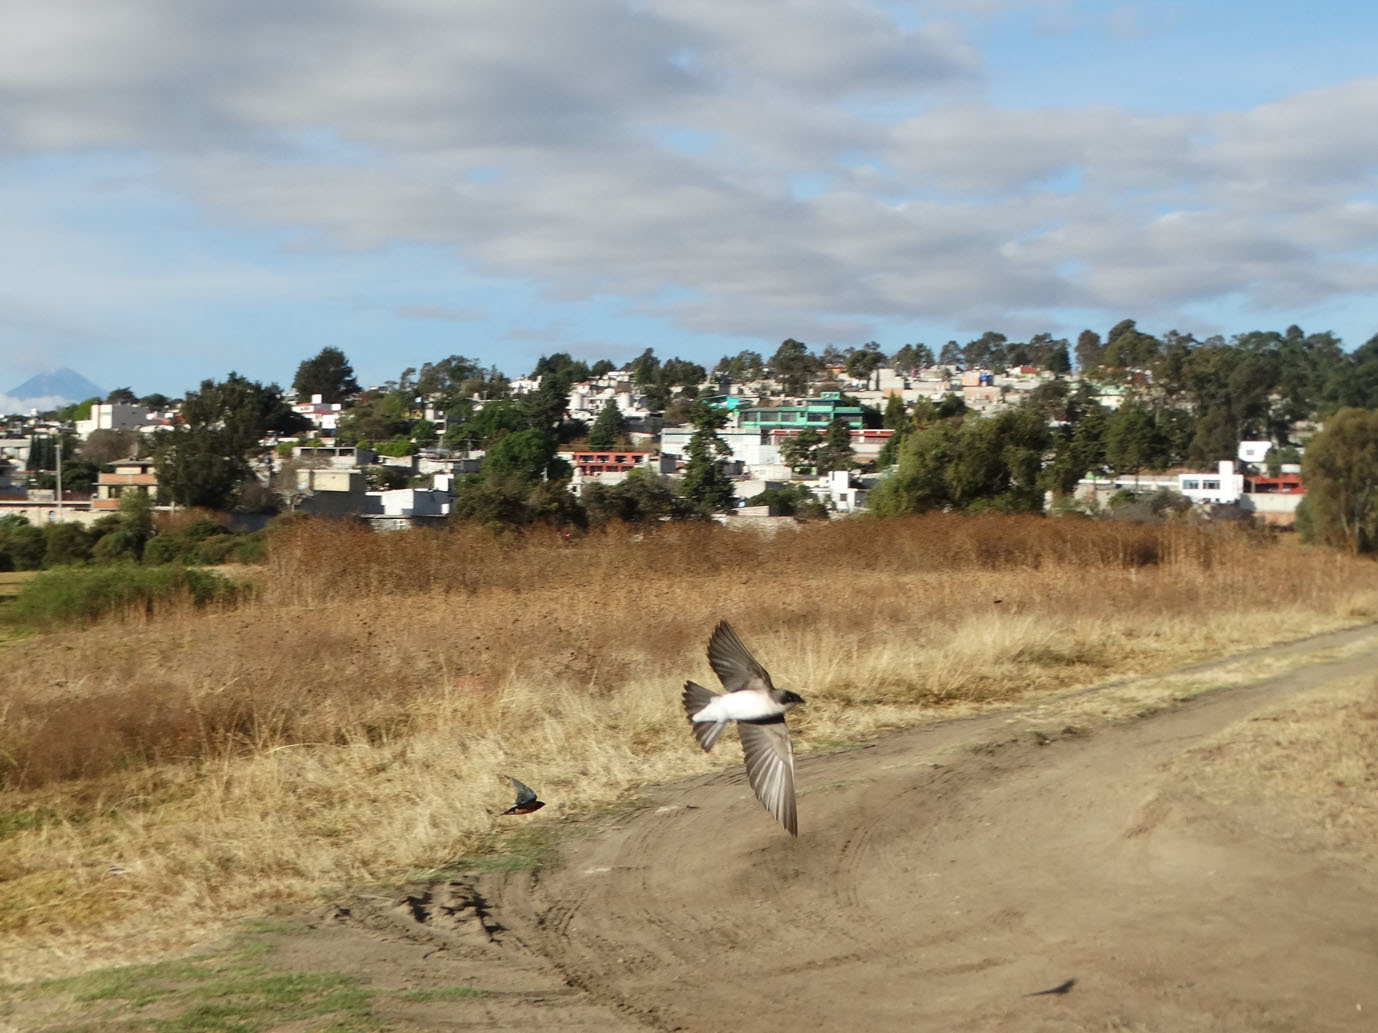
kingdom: Animalia
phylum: Chordata
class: Aves
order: Passeriformes
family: Hirundinidae
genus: Tachycineta
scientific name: Tachycineta bicolor
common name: Tree swallow
